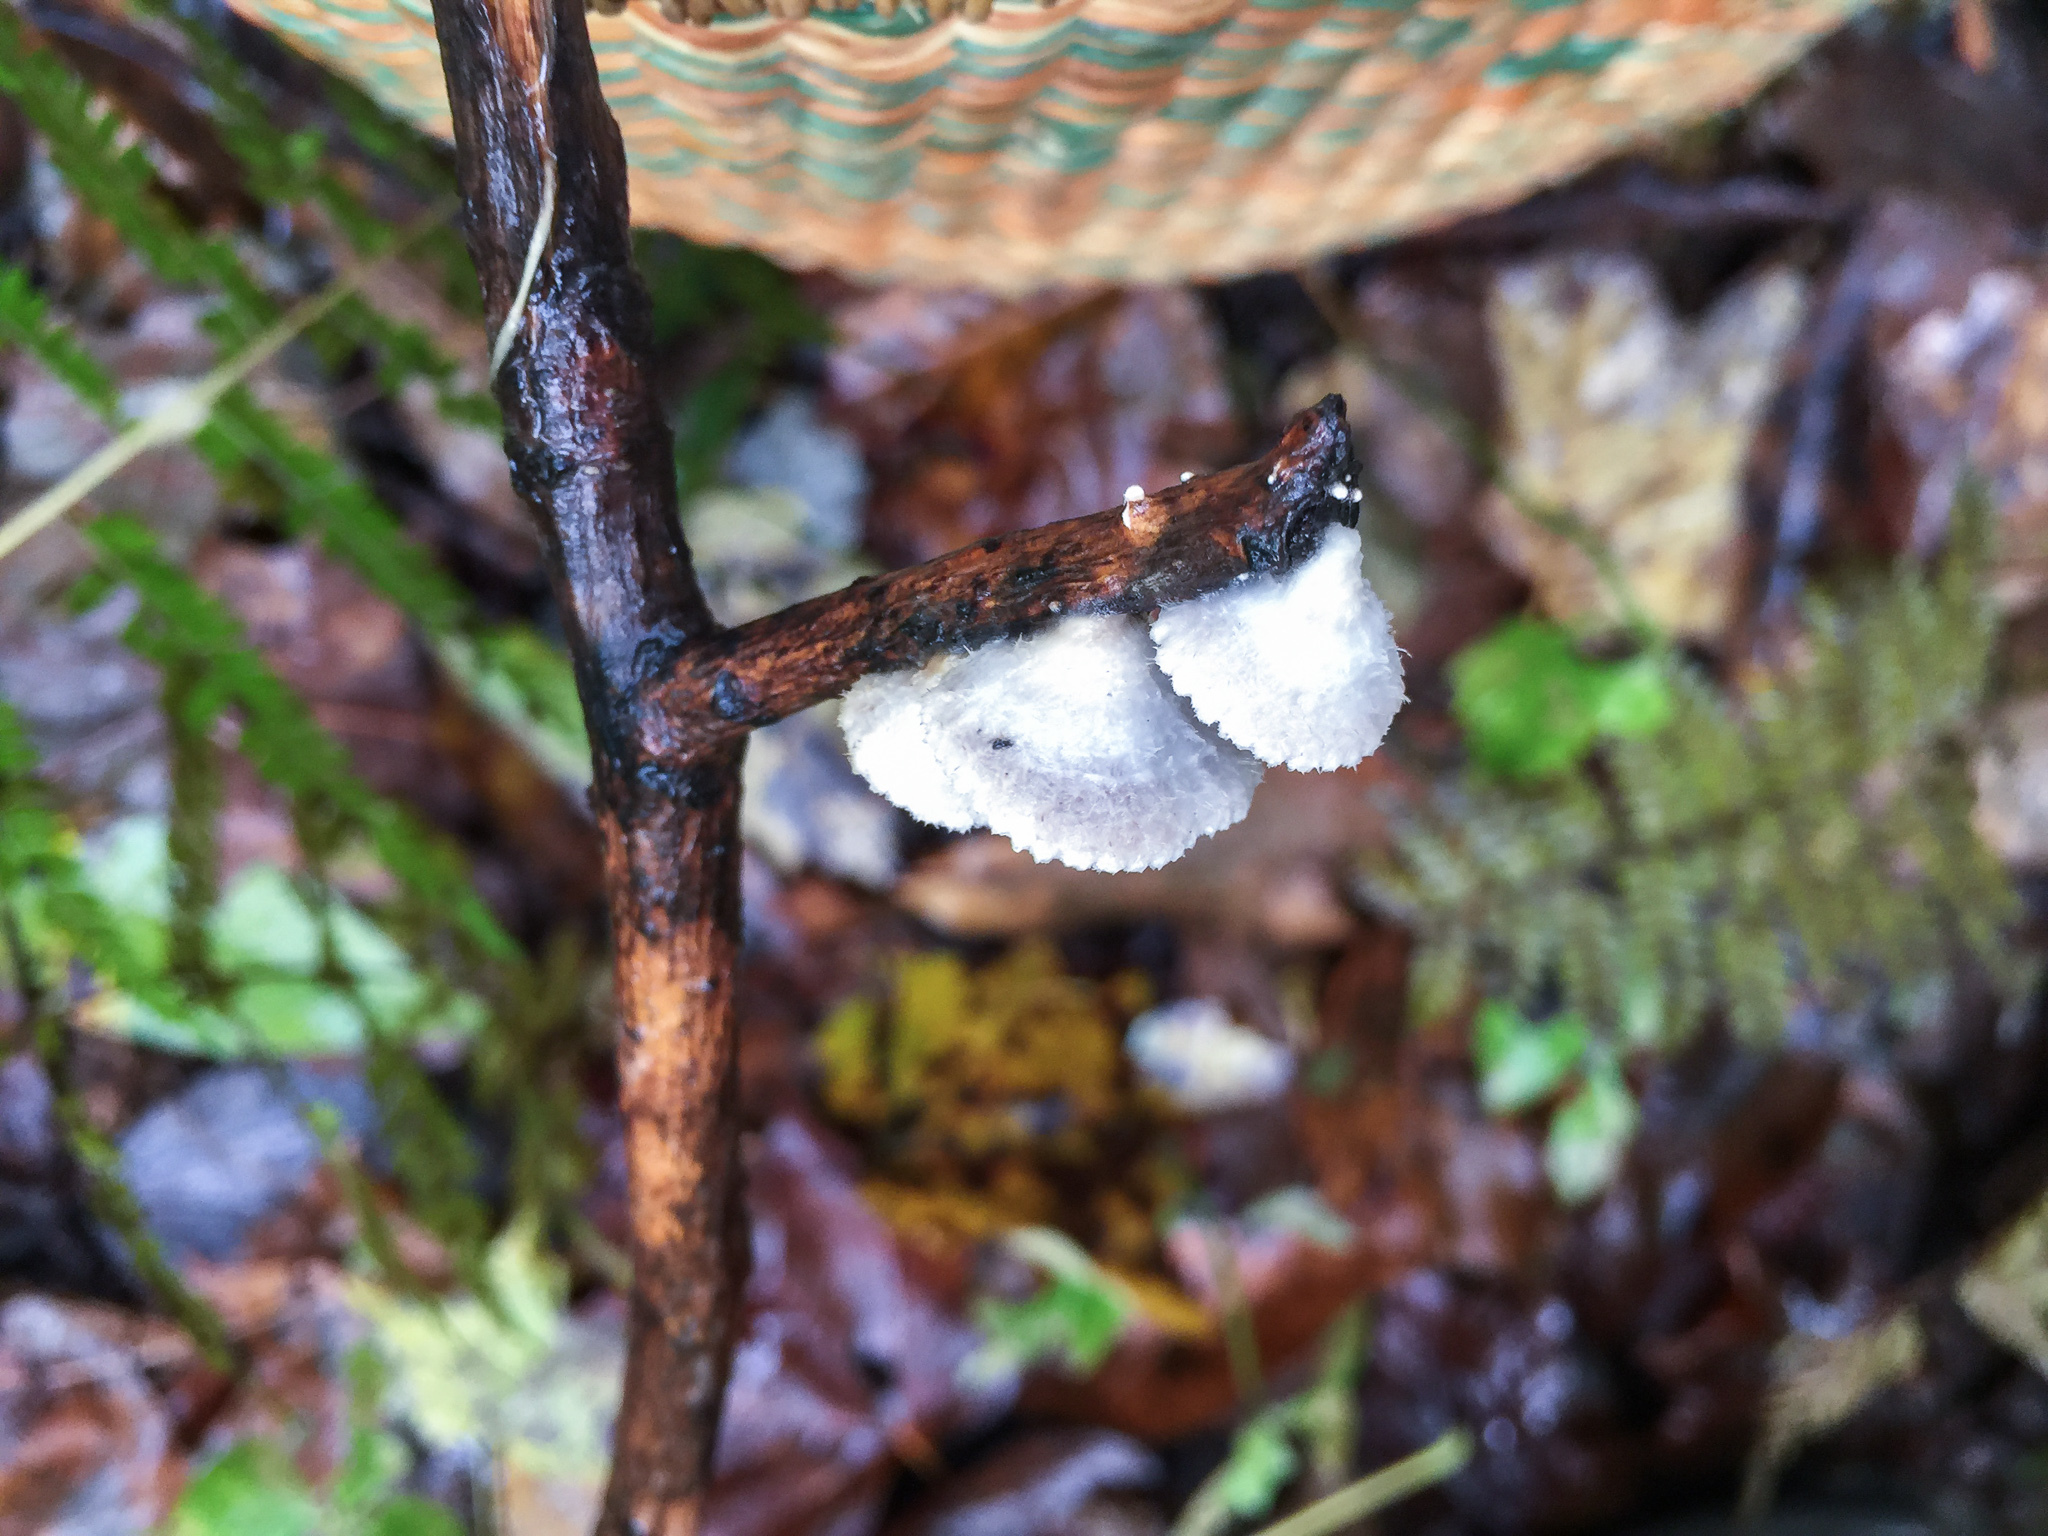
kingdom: Fungi
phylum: Basidiomycota
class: Agaricomycetes
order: Agaricales
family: Schizophyllaceae
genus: Schizophyllum
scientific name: Schizophyllum commune
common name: Common porecrust
